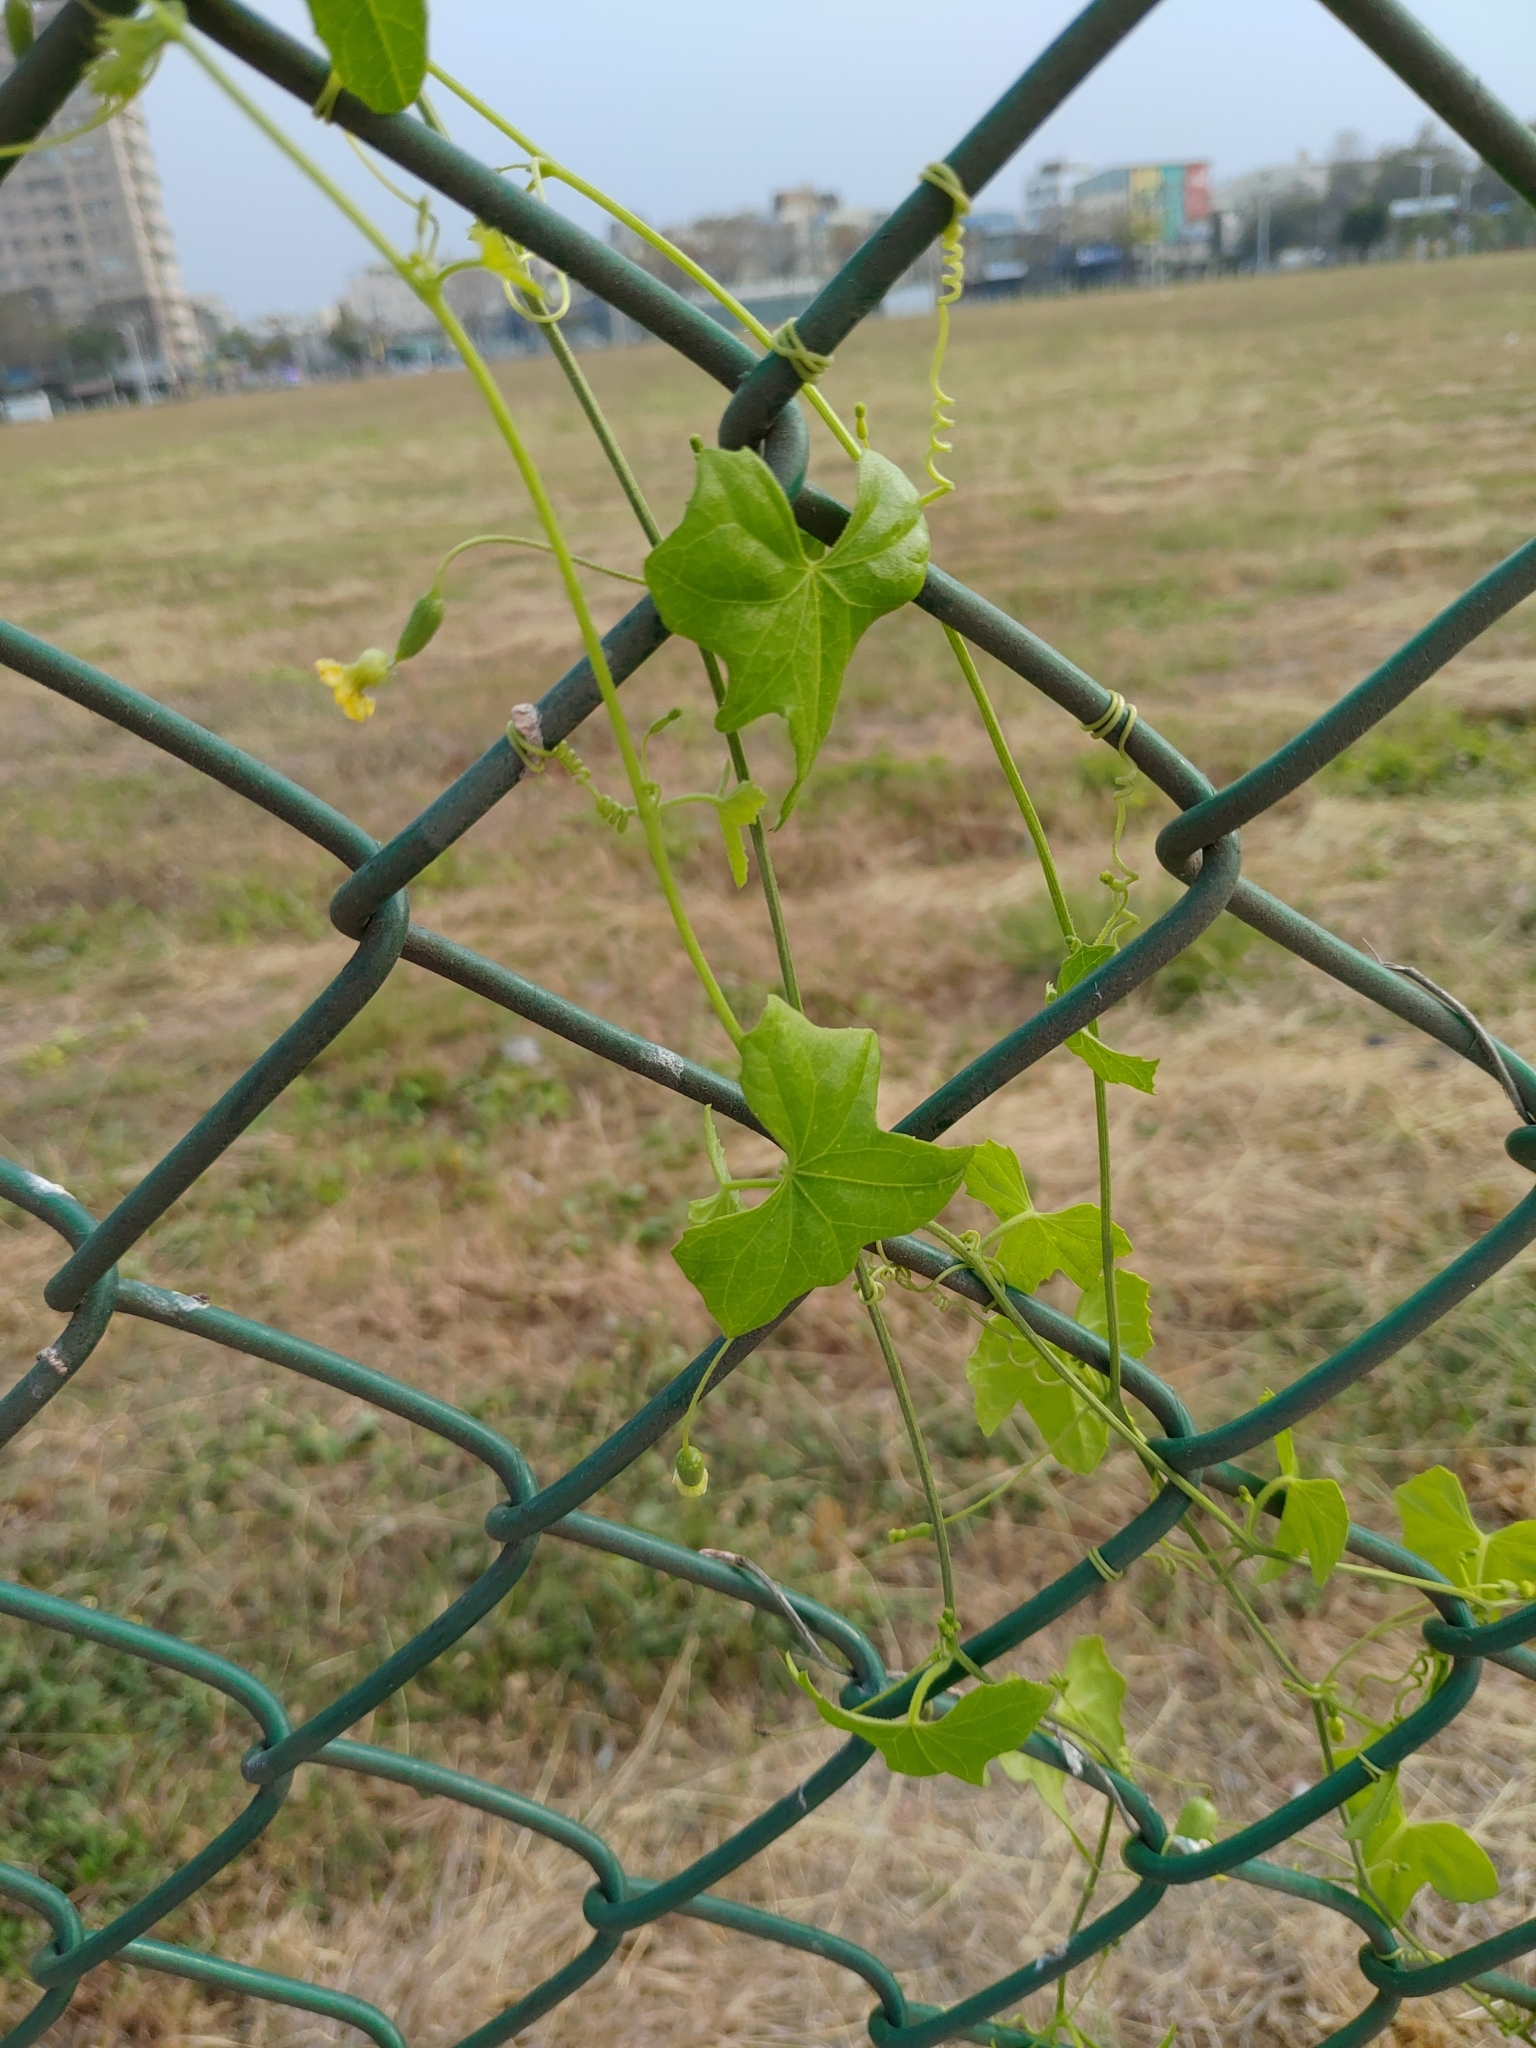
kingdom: Plantae
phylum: Tracheophyta
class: Magnoliopsida
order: Cucurbitales
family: Cucurbitaceae
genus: Melothria
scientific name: Melothria pendula
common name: Creeping-cucumber
